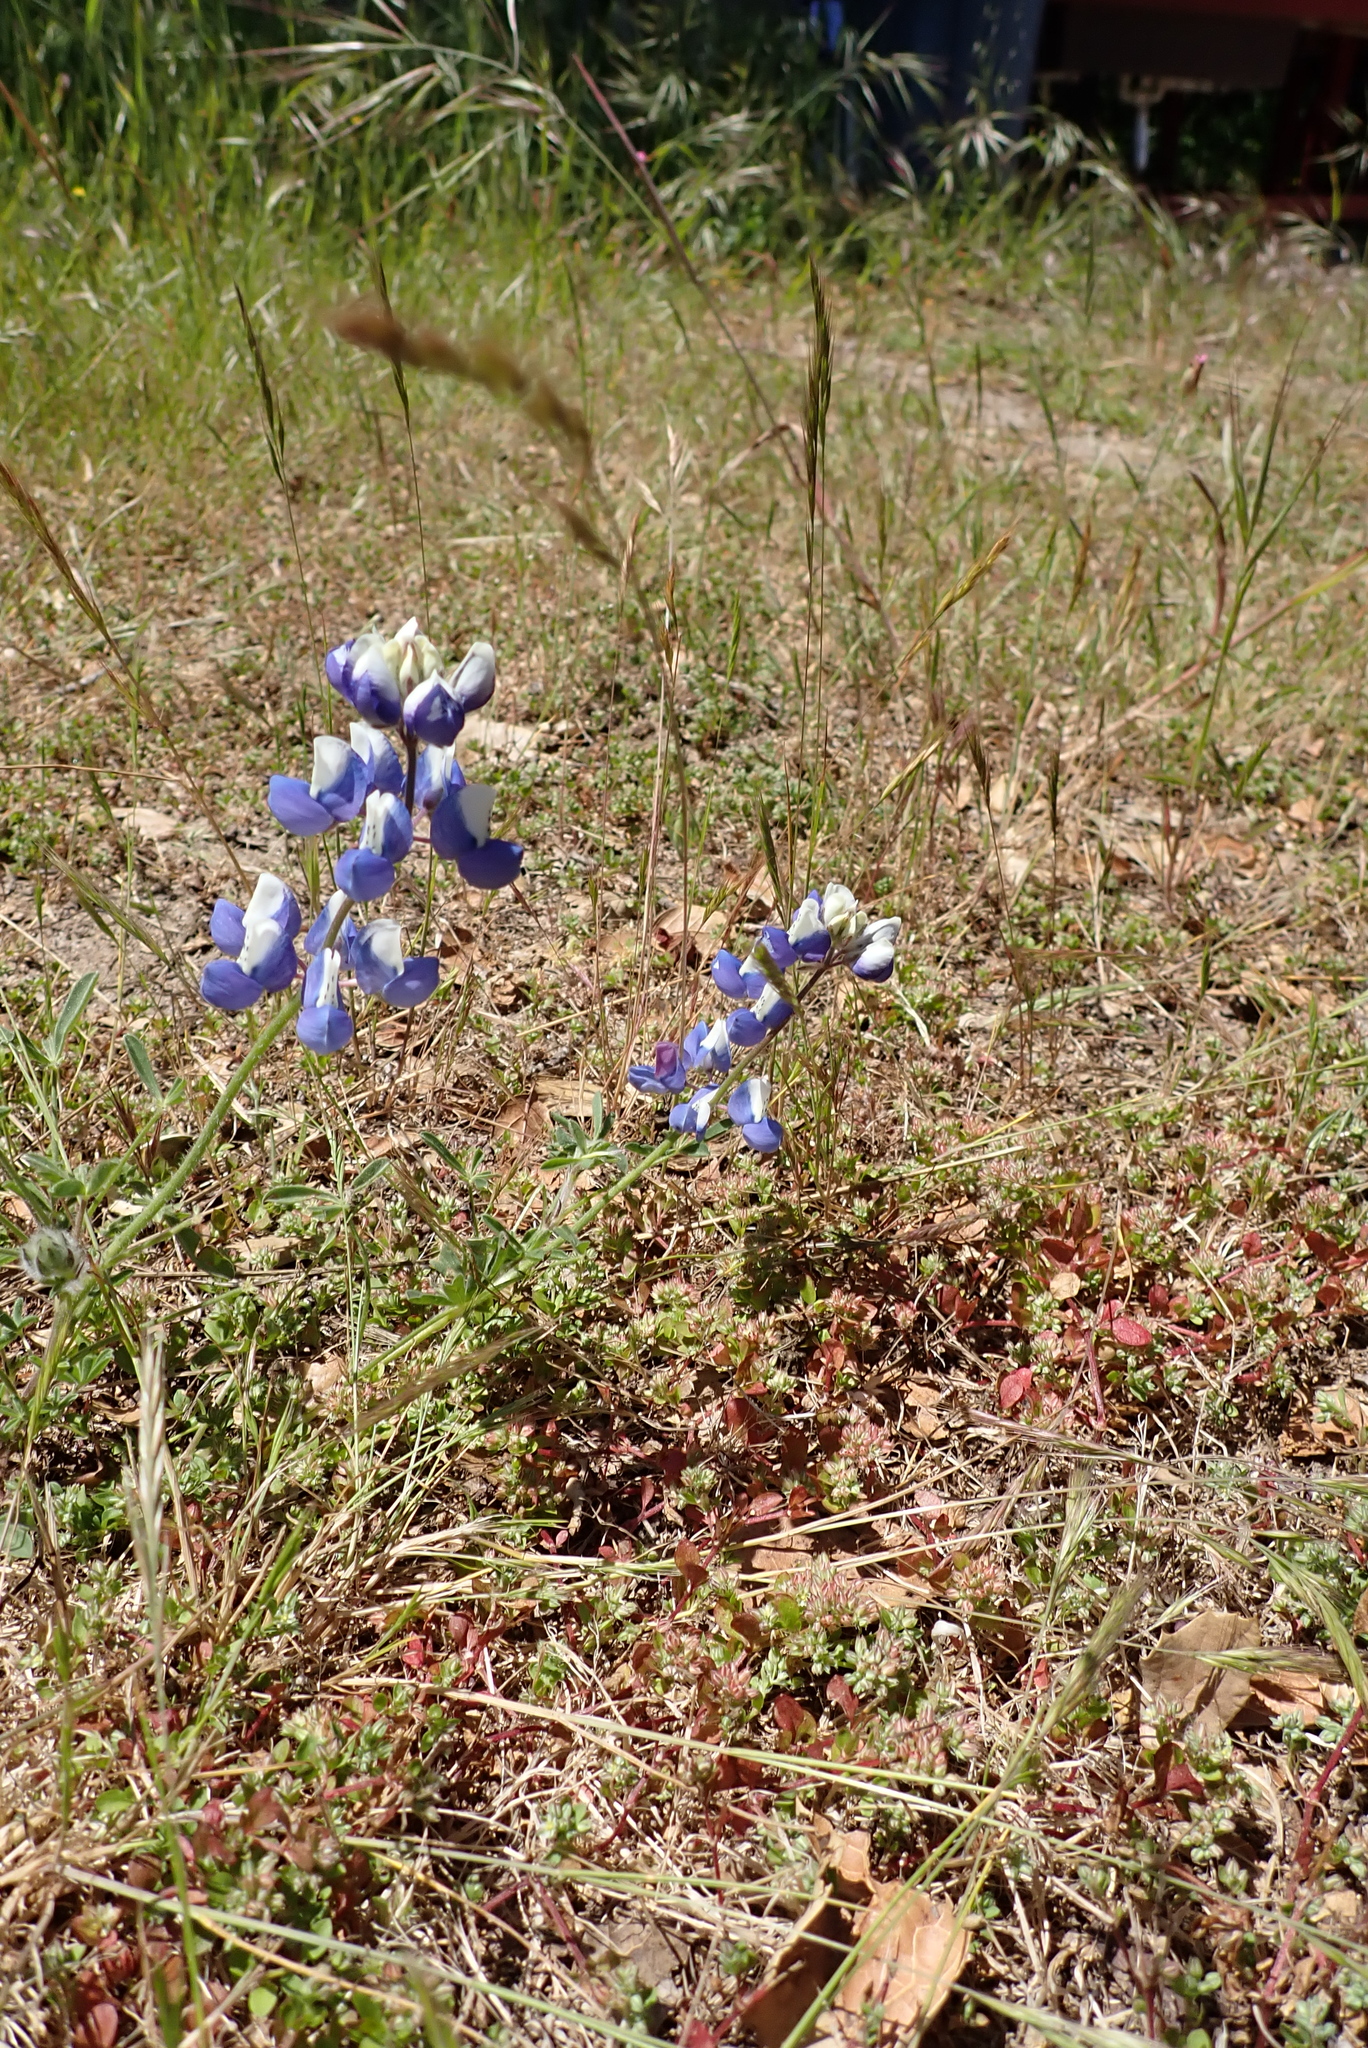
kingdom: Plantae
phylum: Tracheophyta
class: Magnoliopsida
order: Fabales
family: Fabaceae
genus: Lupinus
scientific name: Lupinus nanus
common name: Orean blue lupin
